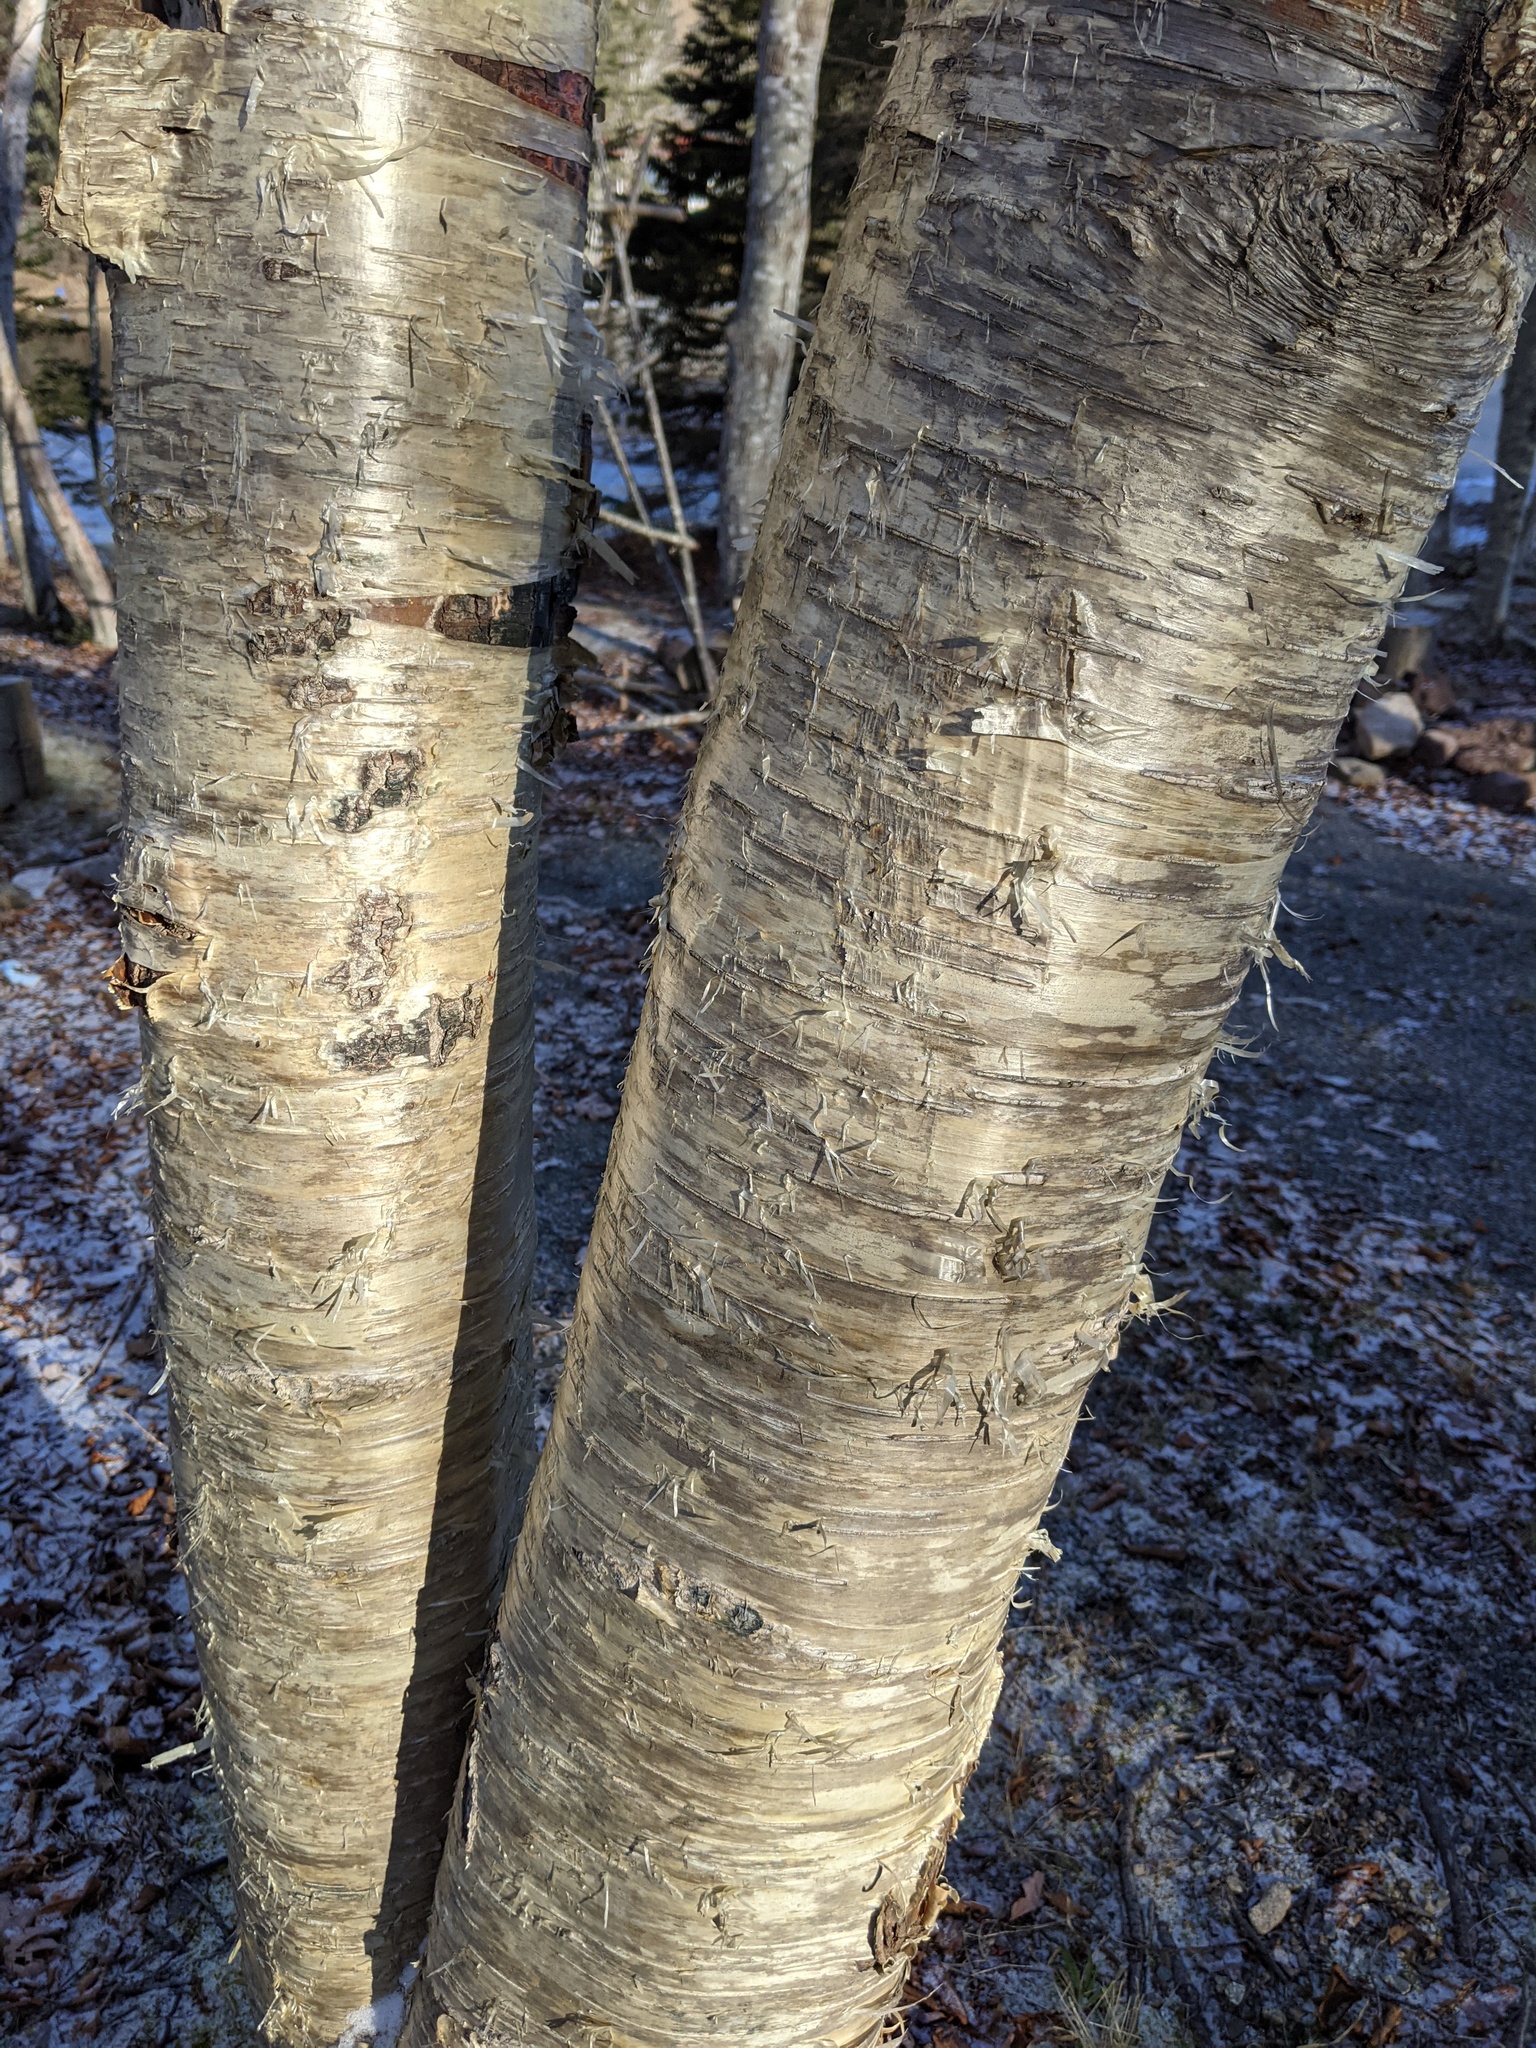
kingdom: Plantae
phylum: Tracheophyta
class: Magnoliopsida
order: Fagales
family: Betulaceae
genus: Betula
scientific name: Betula alleghaniensis
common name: Yellow birch
